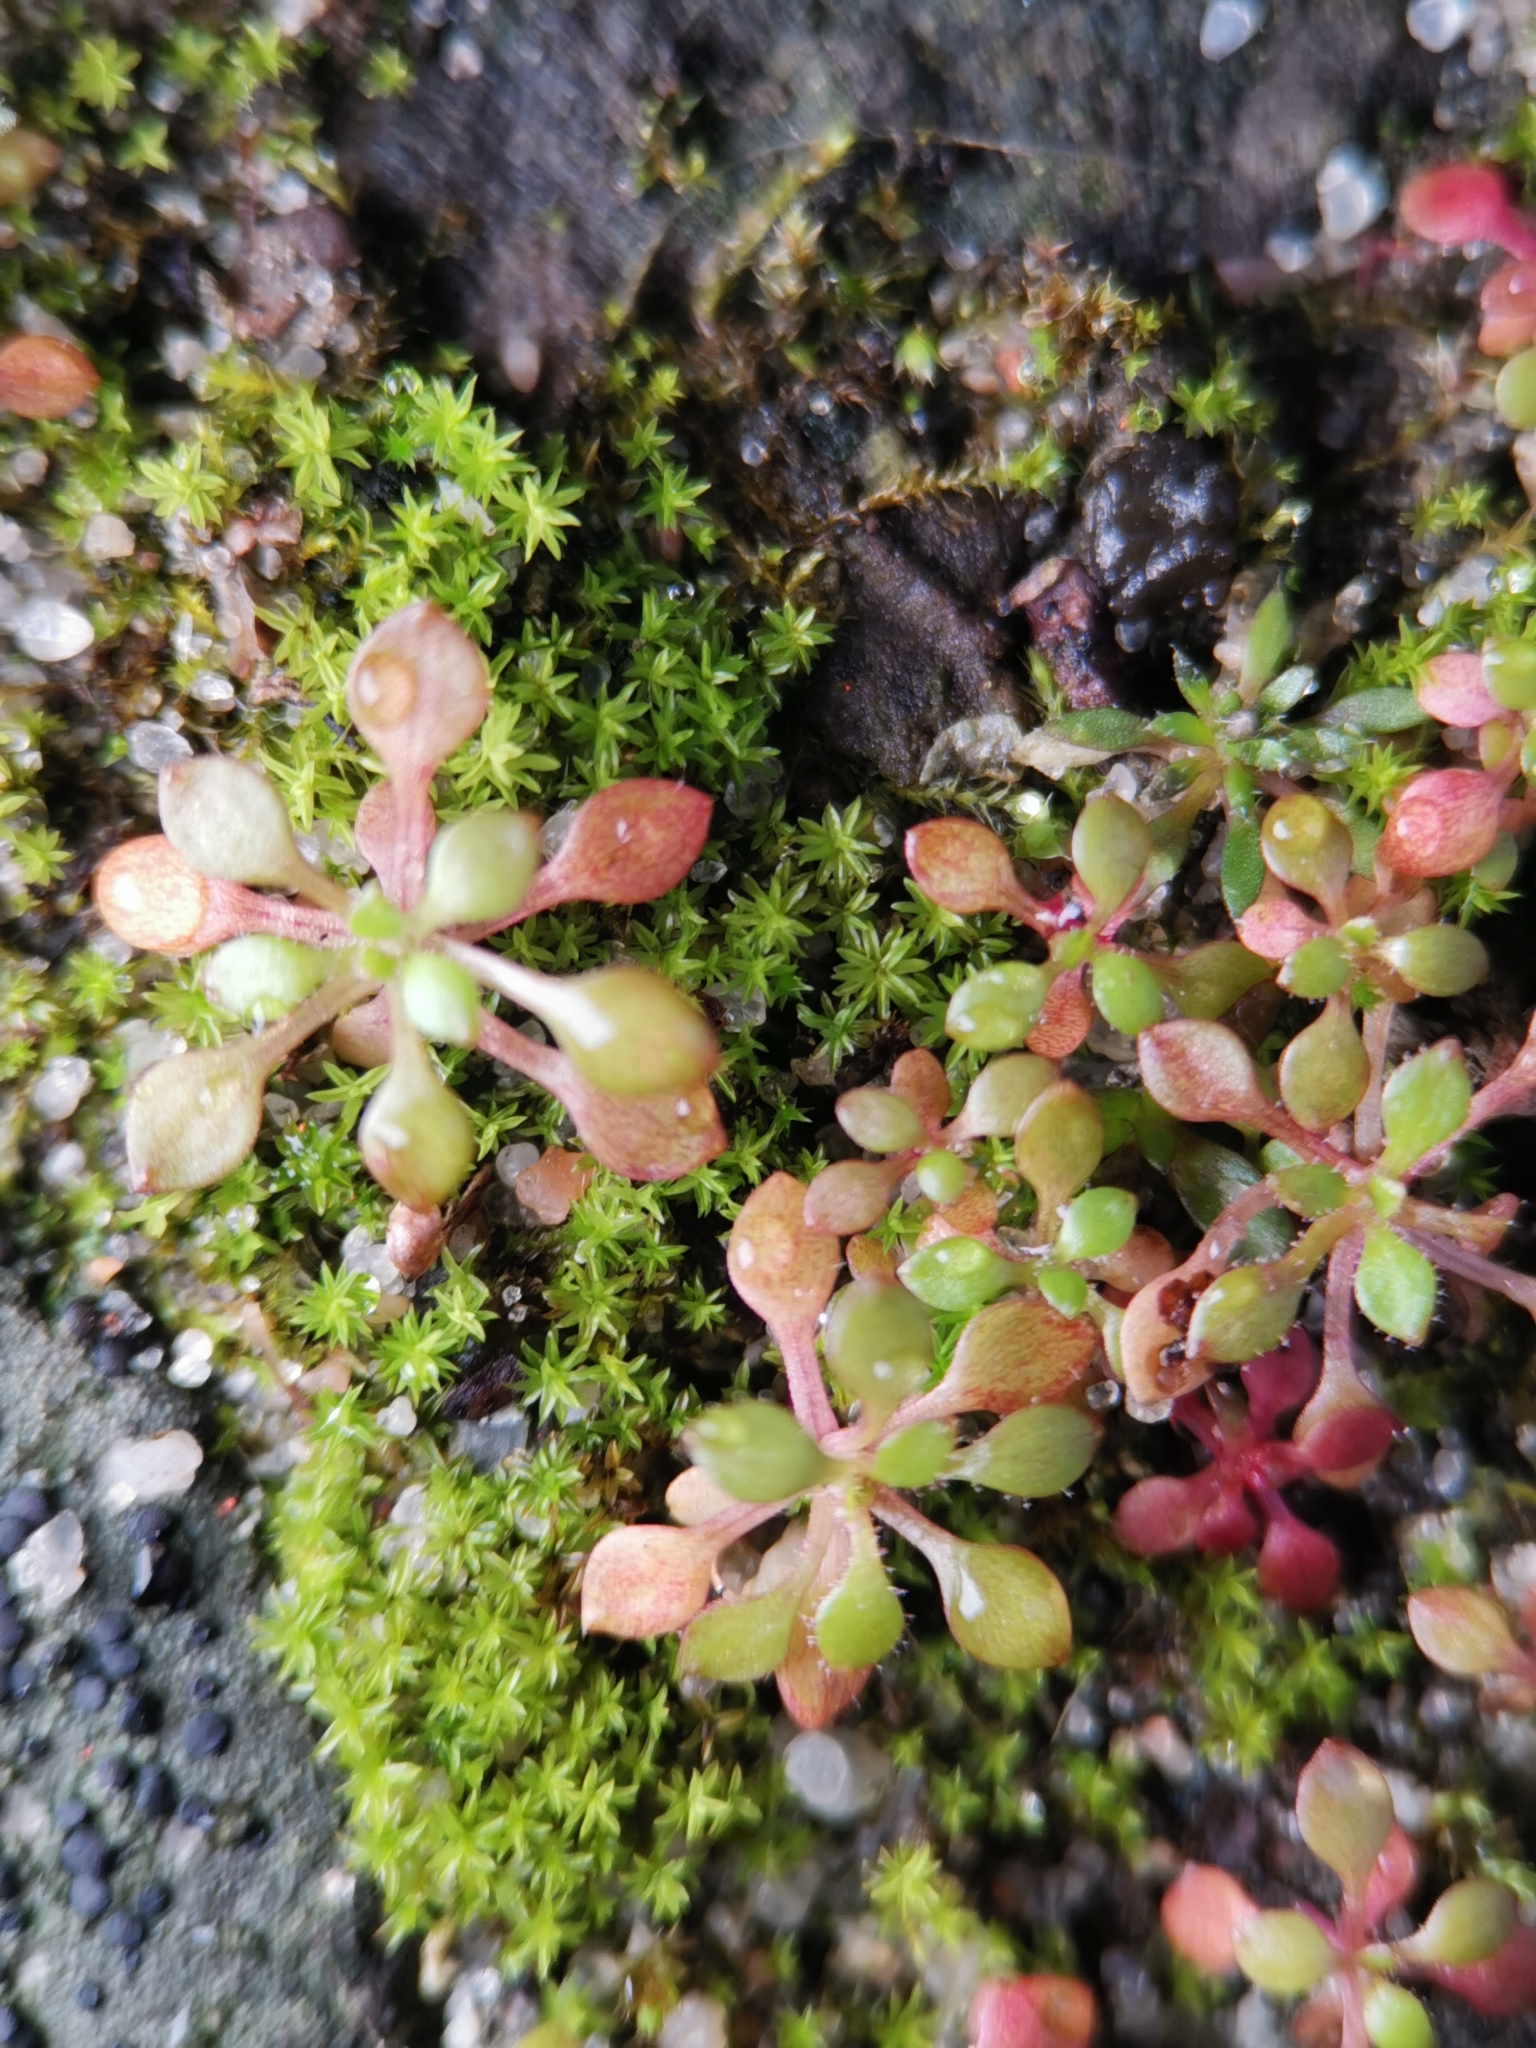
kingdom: Plantae
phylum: Tracheophyta
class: Magnoliopsida
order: Saxifragales
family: Saxifragaceae
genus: Saxifraga
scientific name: Saxifraga tridactylites
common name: Rue-leaved saxifrage
